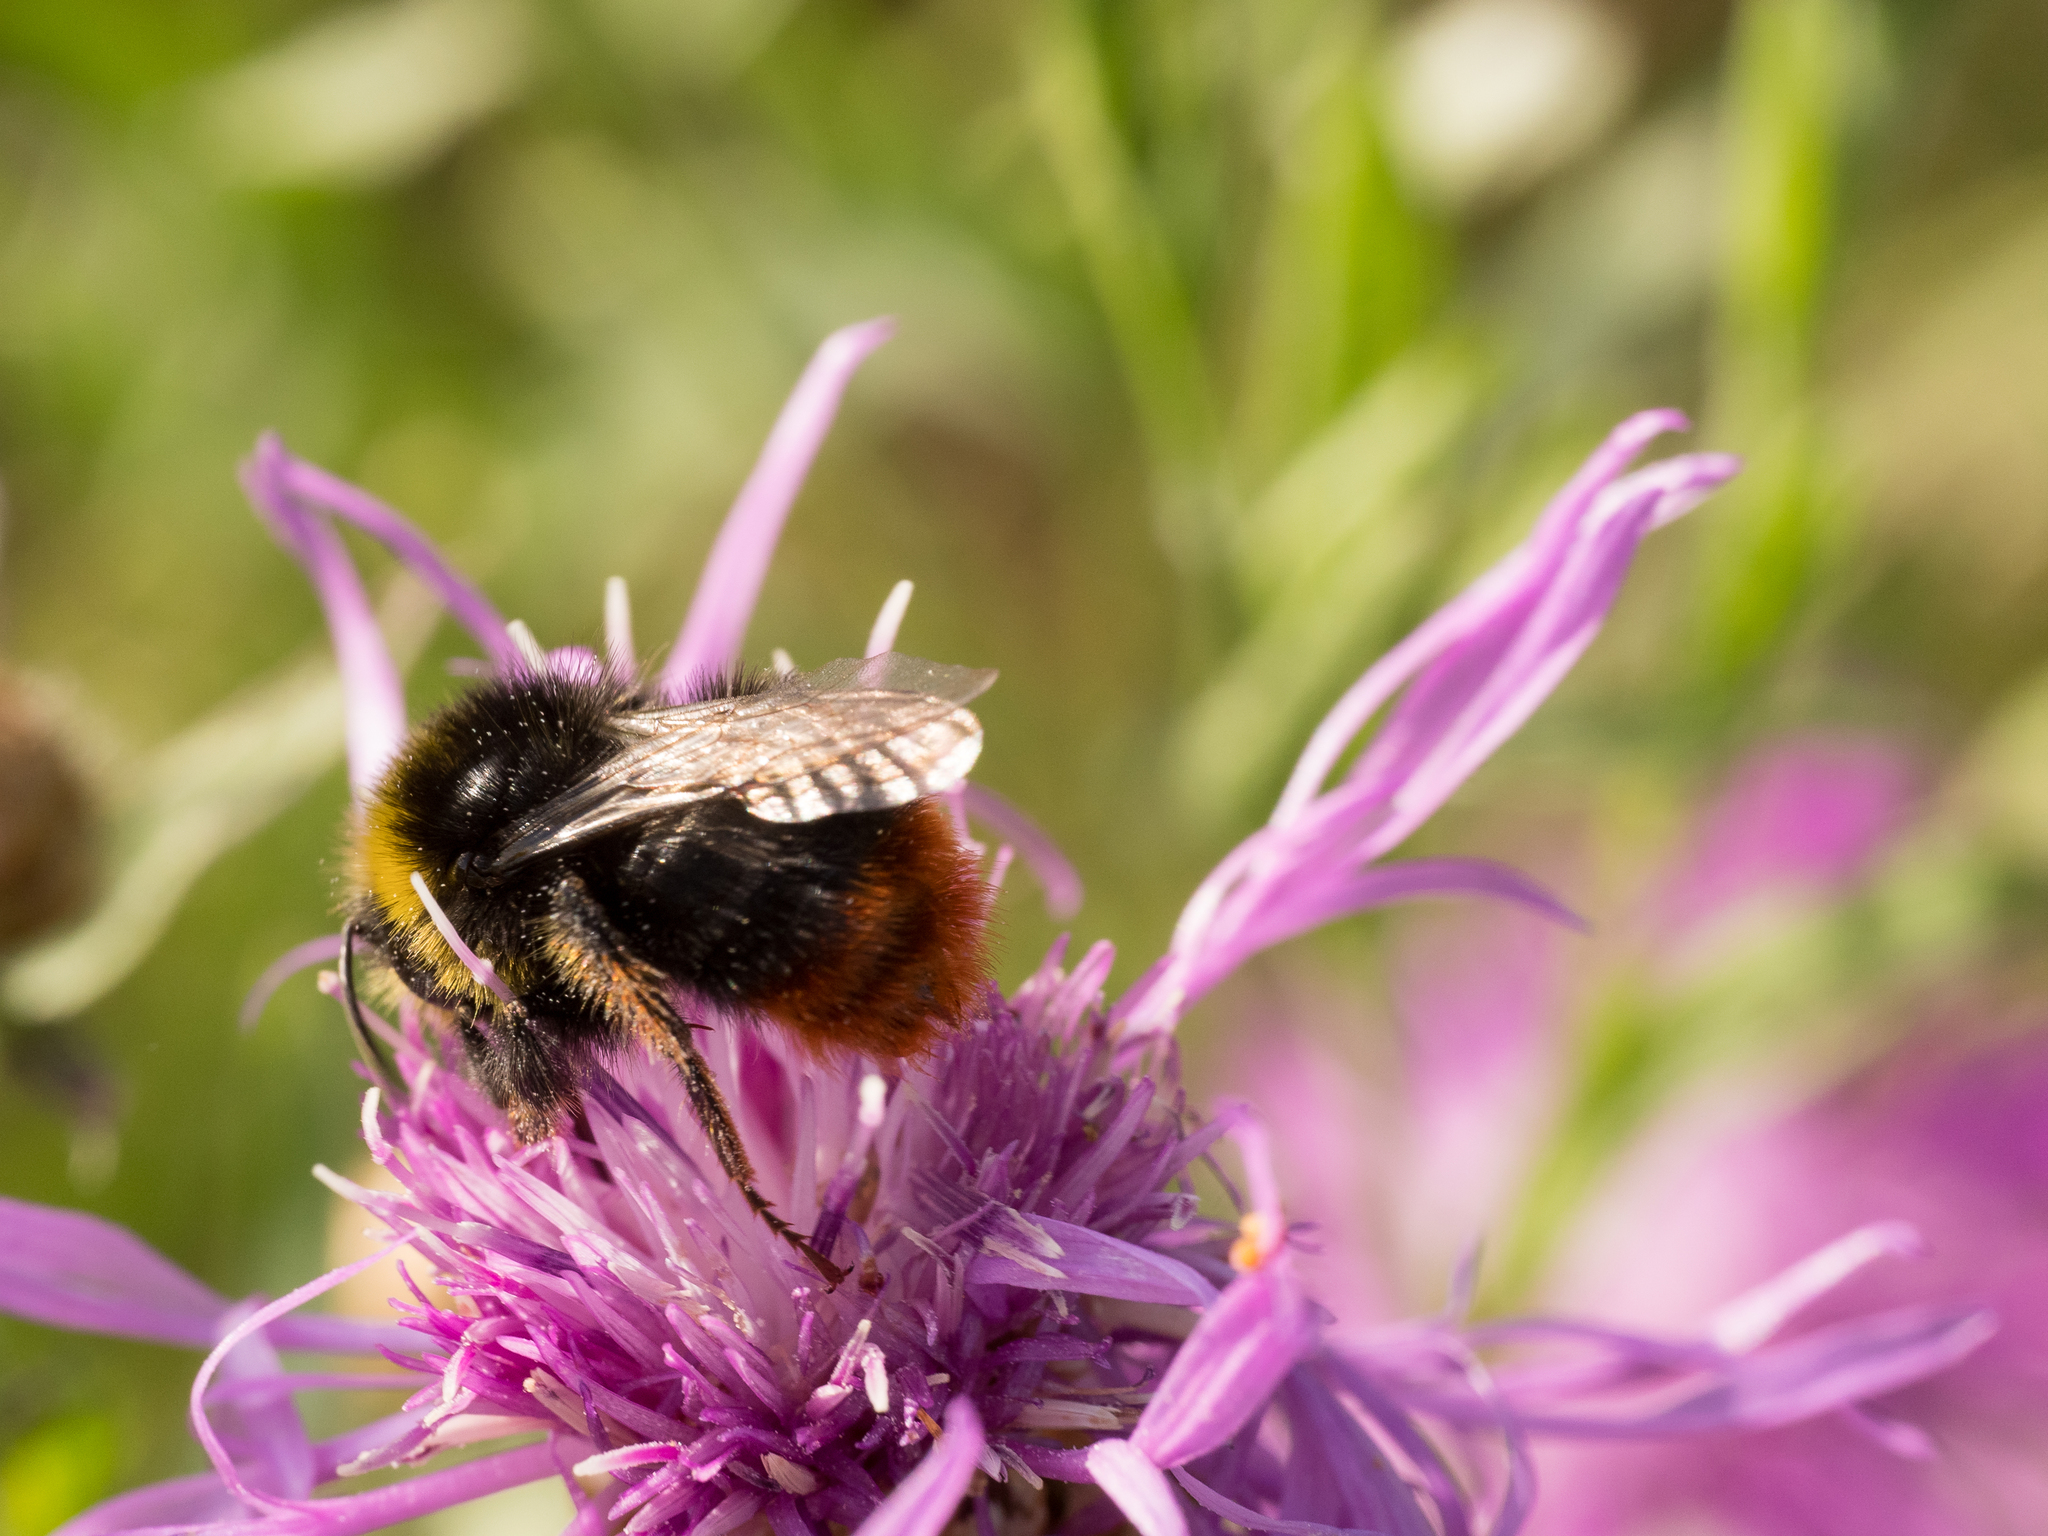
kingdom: Animalia
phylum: Arthropoda
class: Insecta
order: Hymenoptera
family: Apidae
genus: Bombus
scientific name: Bombus lapidarius
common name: Large red-tailed humble-bee
